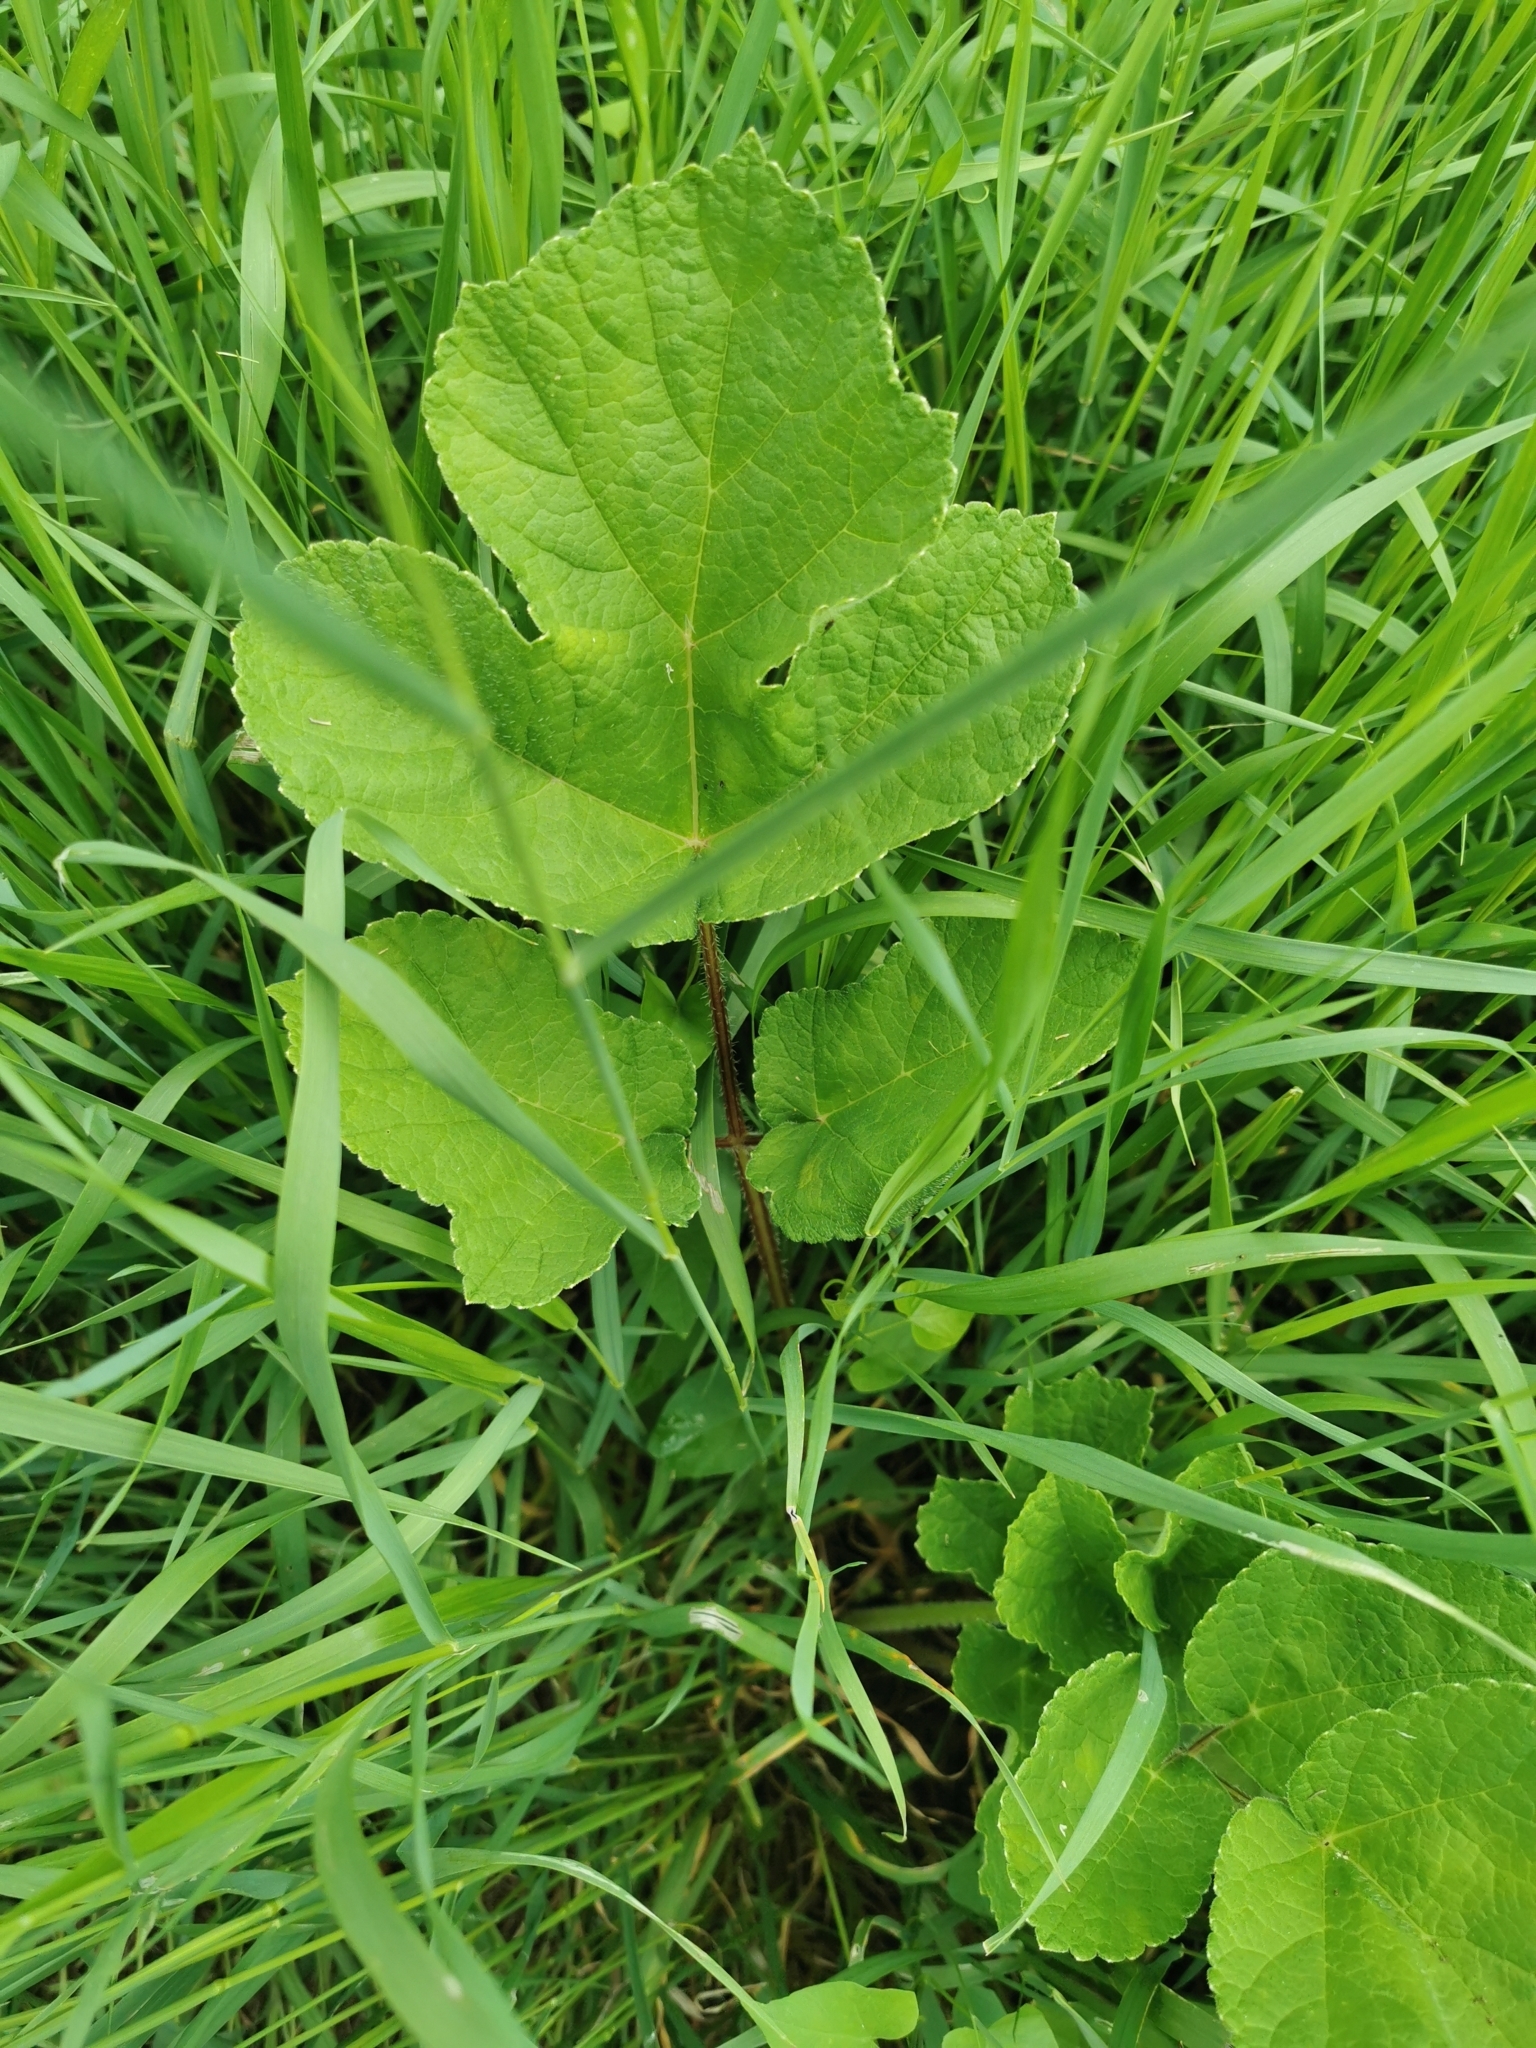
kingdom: Plantae
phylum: Tracheophyta
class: Magnoliopsida
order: Apiales
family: Apiaceae
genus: Heracleum
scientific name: Heracleum sphondylium
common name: Hogweed
